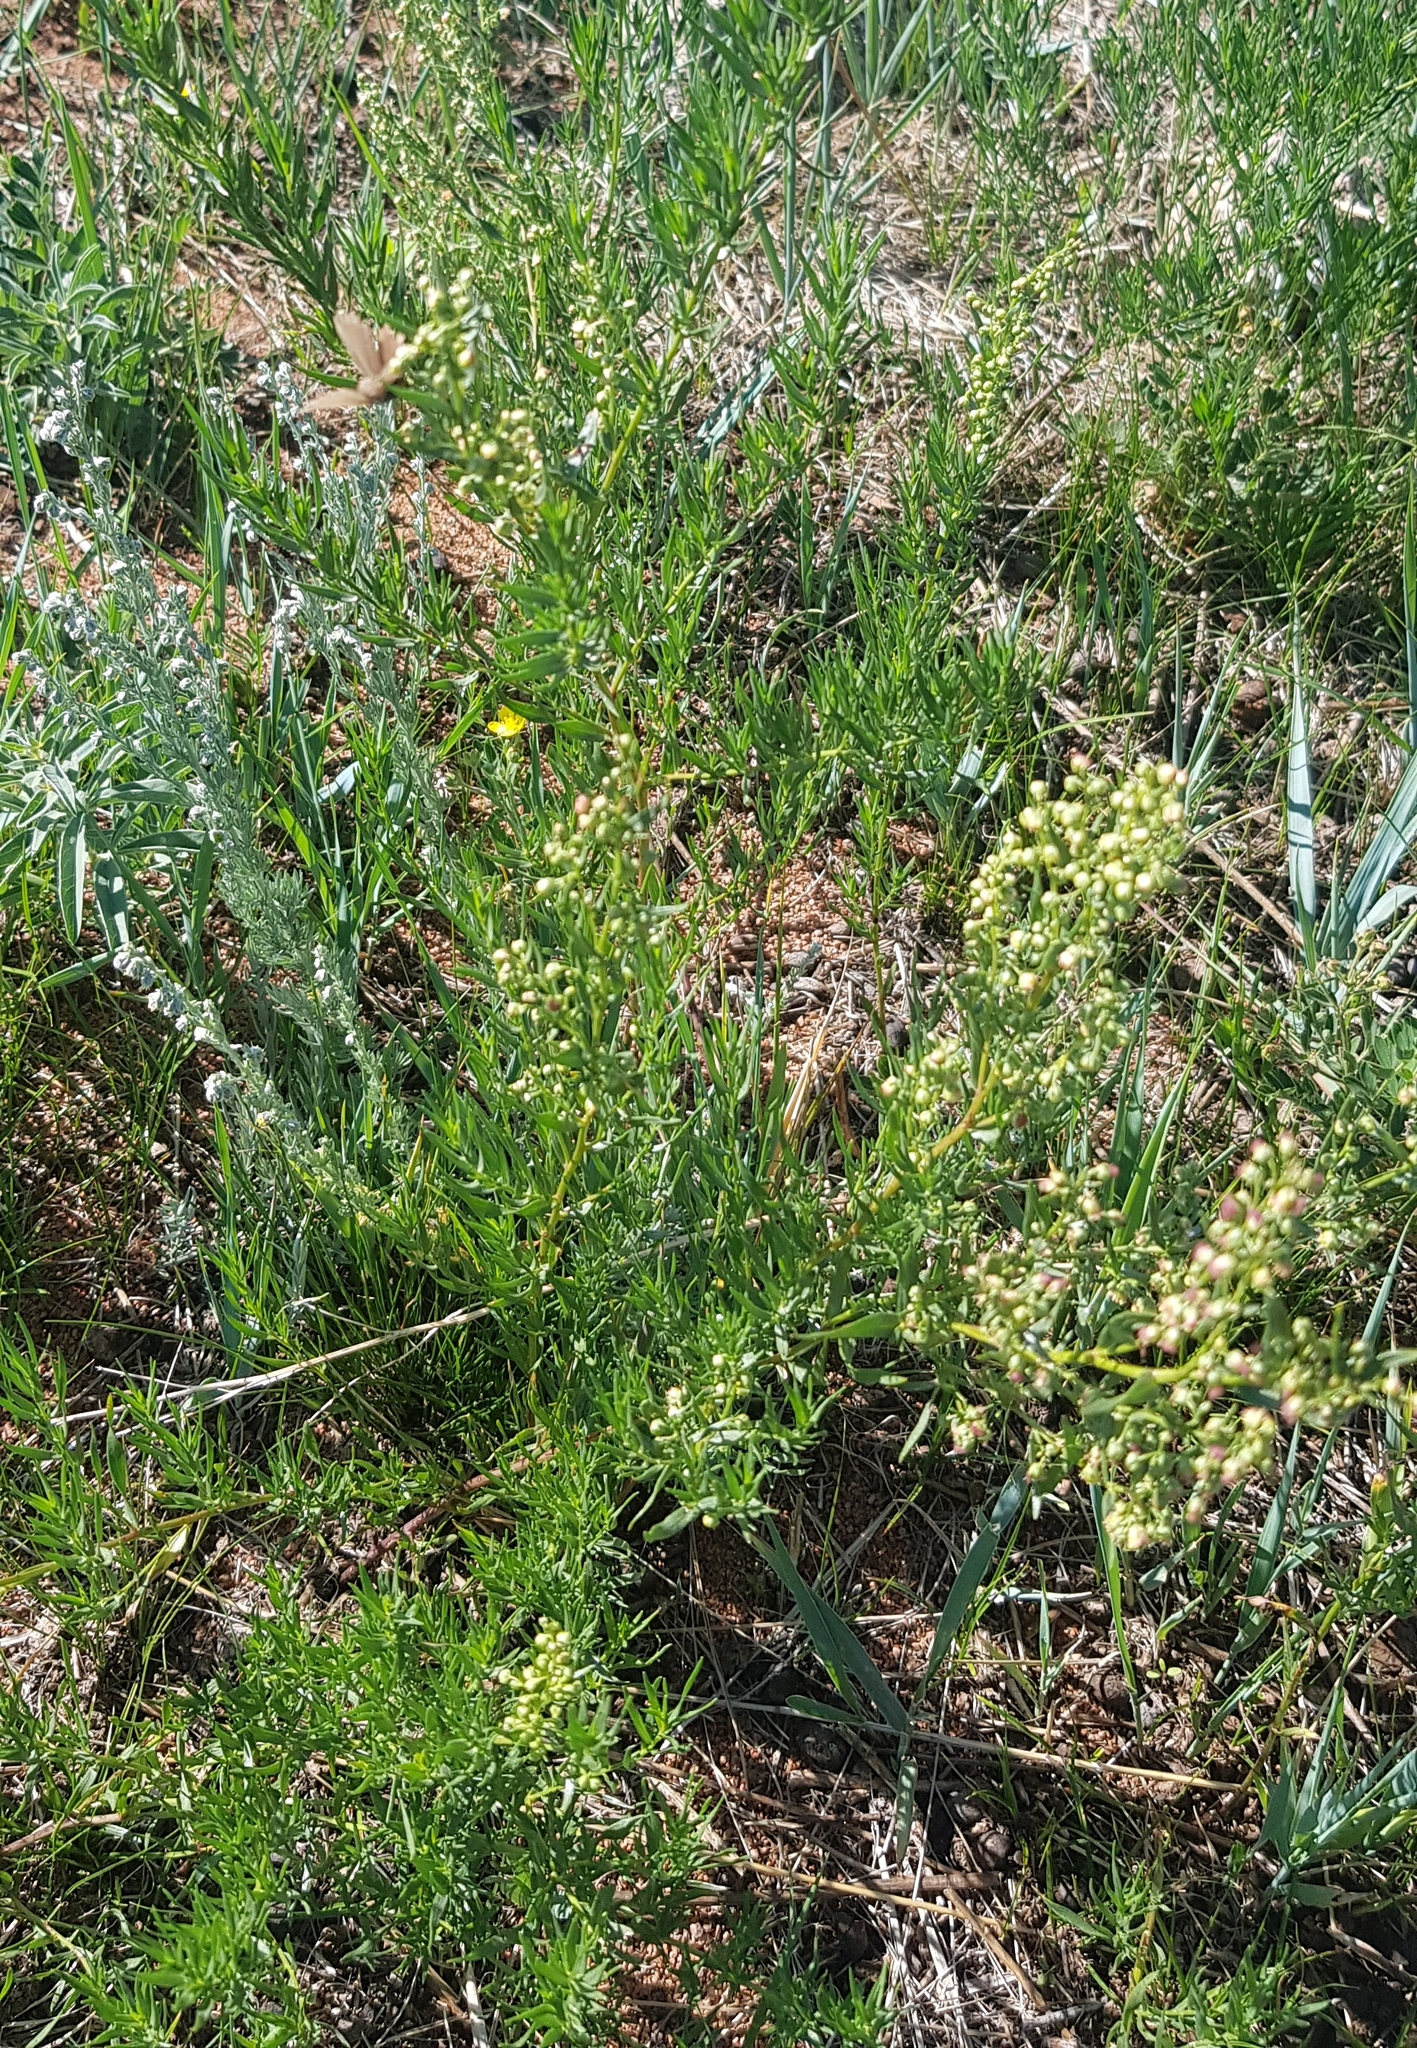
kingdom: Plantae
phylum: Tracheophyta
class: Magnoliopsida
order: Asterales
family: Asteraceae
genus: Artemisia
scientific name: Artemisia dracunculus
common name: Tarragon
